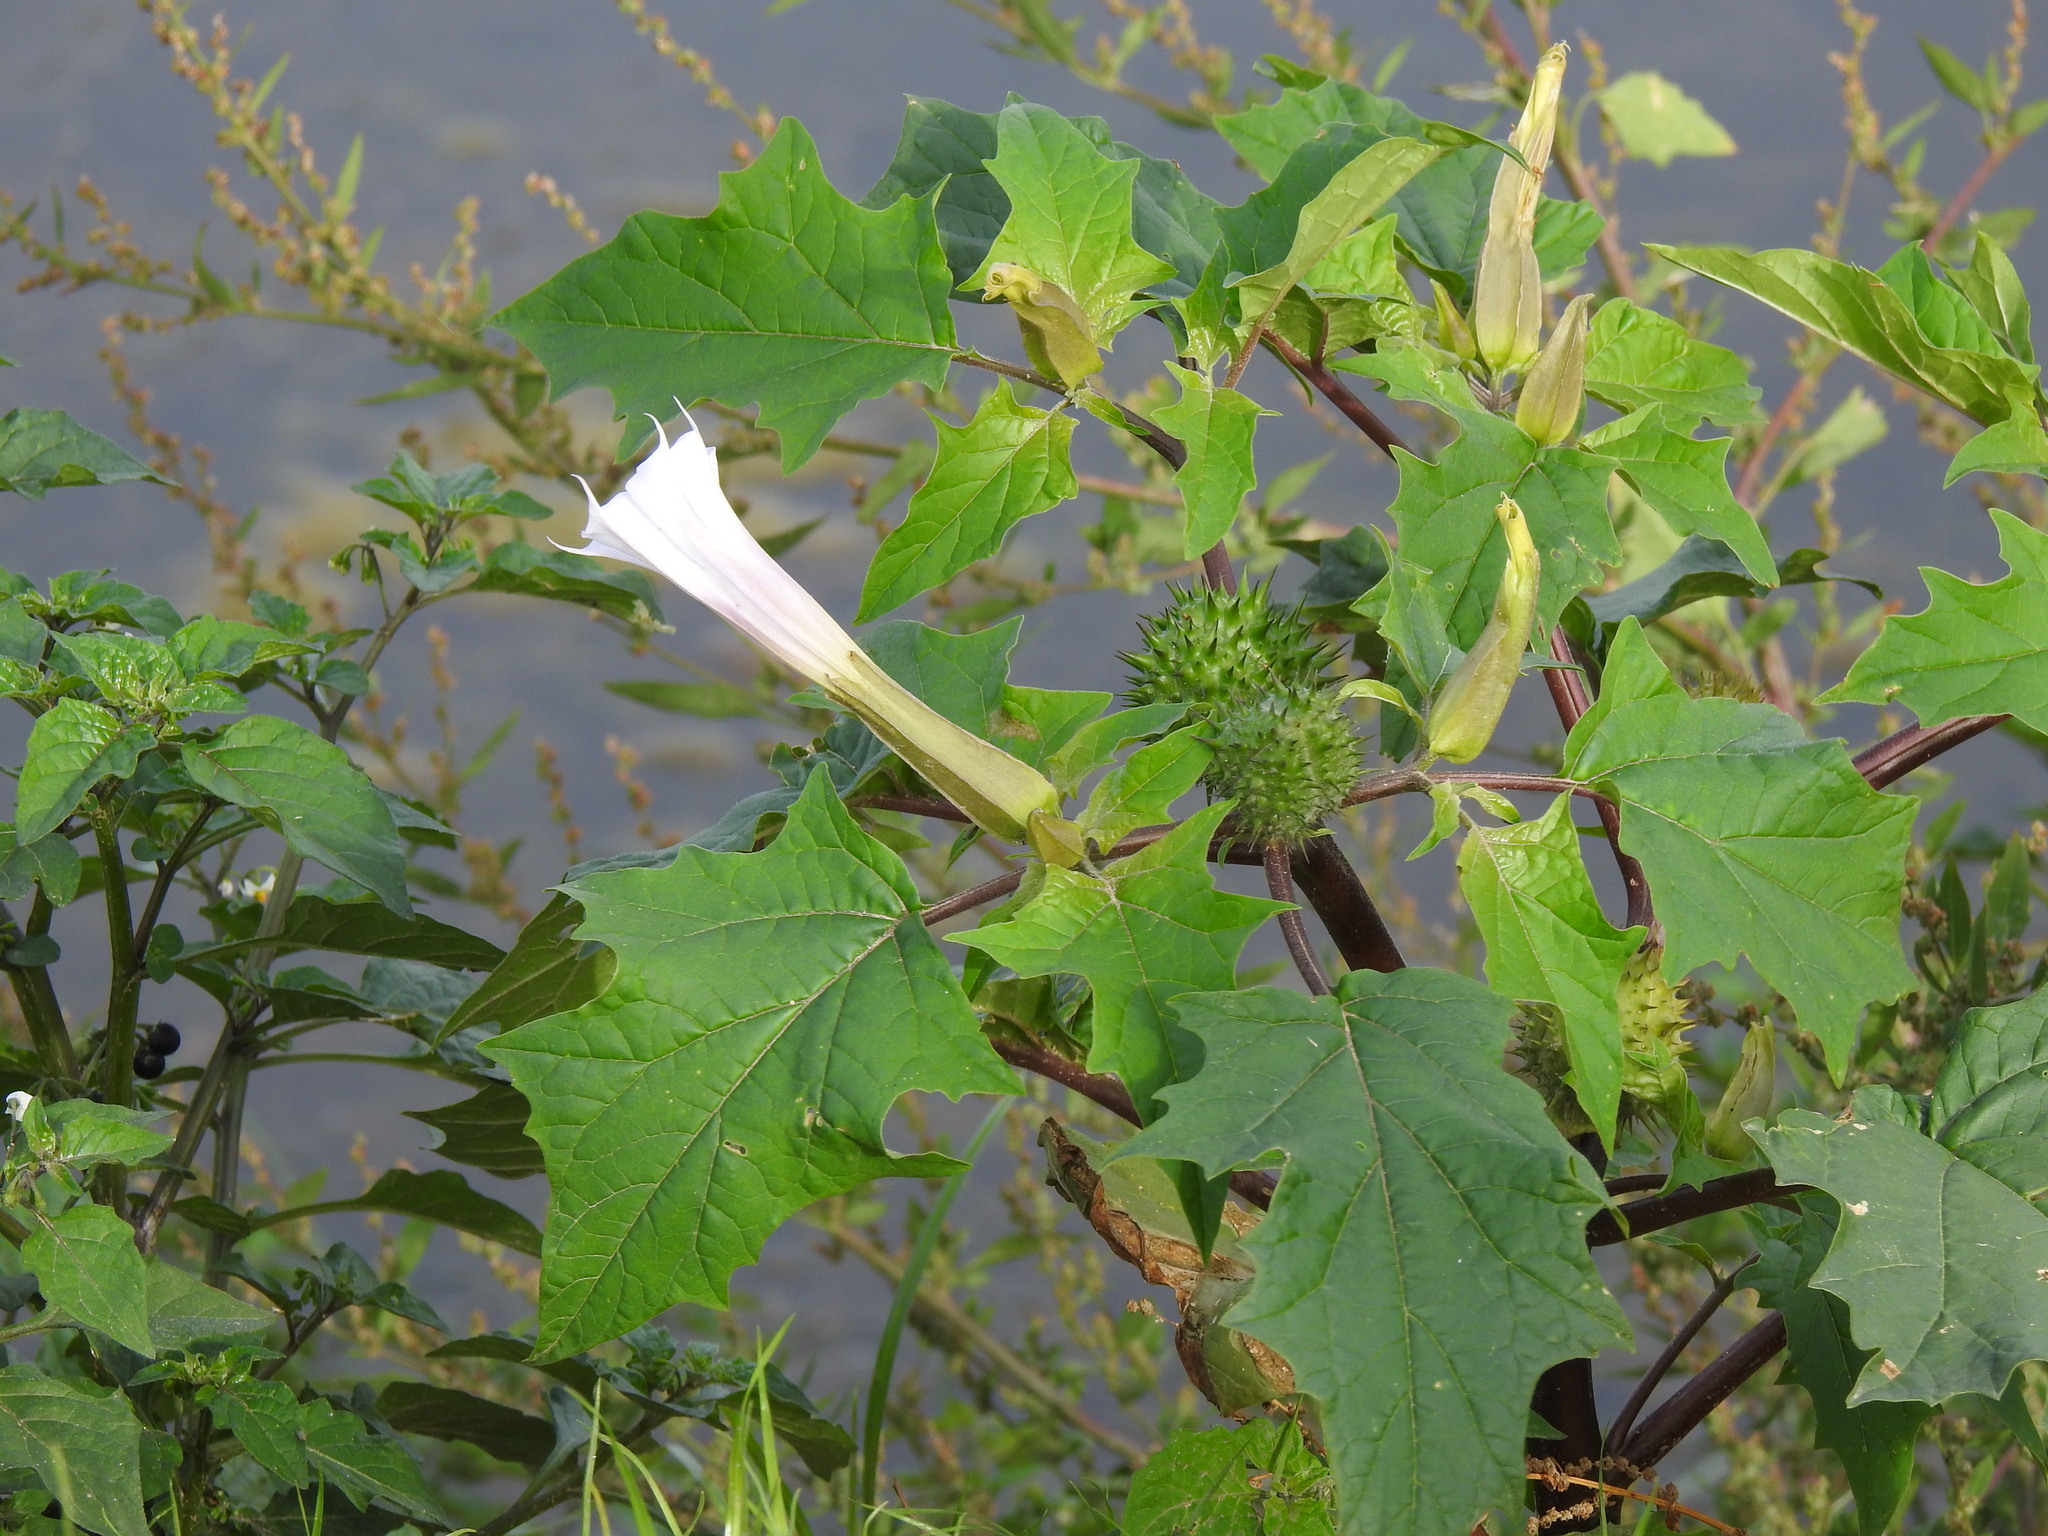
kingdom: Plantae
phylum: Tracheophyta
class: Magnoliopsida
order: Solanales
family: Solanaceae
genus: Datura
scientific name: Datura stramonium
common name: Thorn-apple
